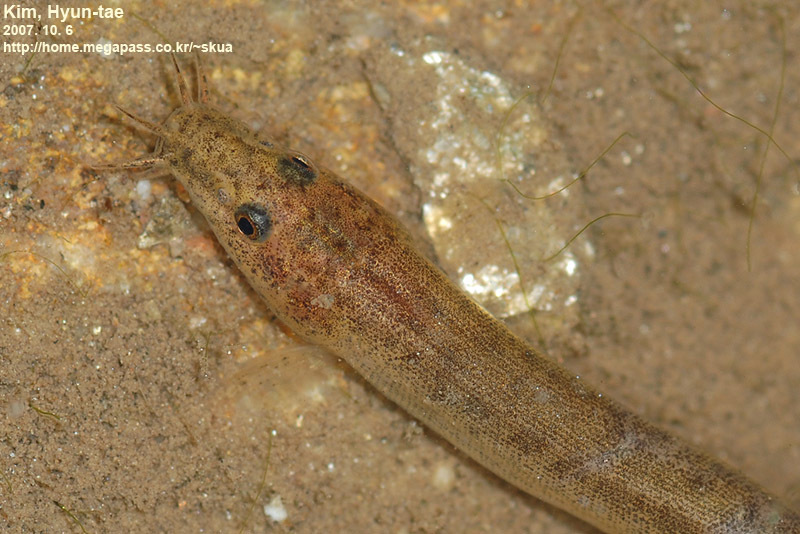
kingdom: Animalia
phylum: Chordata
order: Cypriniformes
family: Cobitidae
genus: Misgurnus
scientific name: Misgurnus anguillicaudatus
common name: Oriental weatherfish
